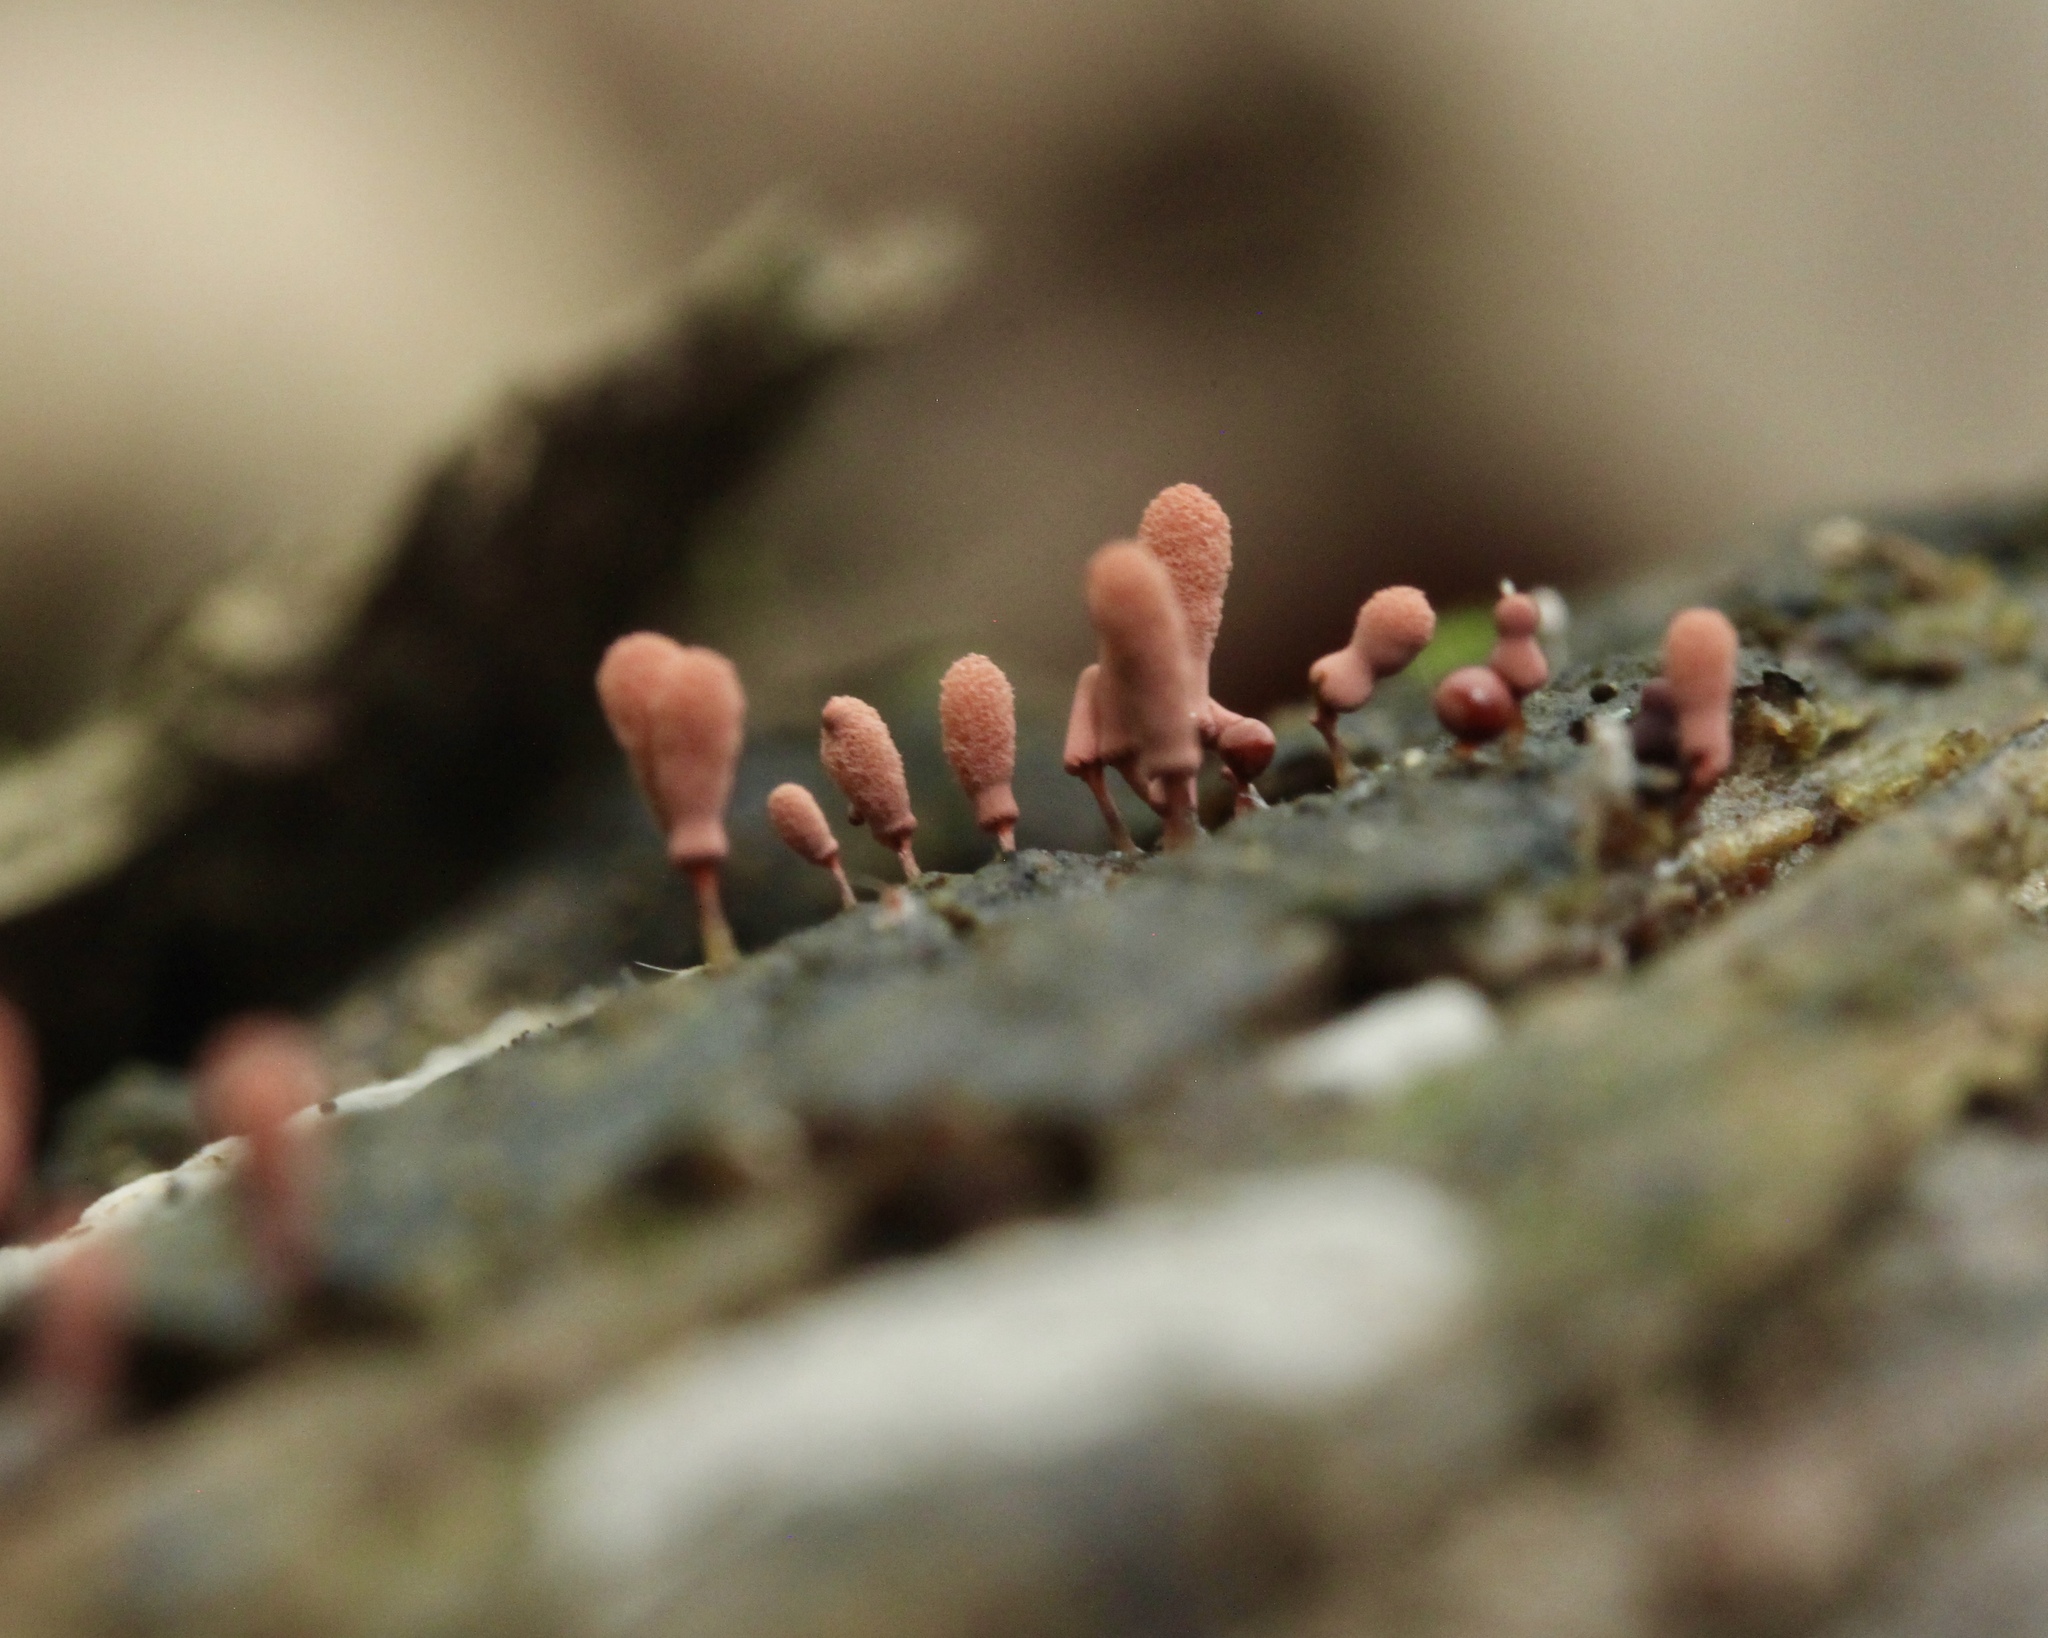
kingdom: Protozoa
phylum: Mycetozoa
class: Myxomycetes
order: Trichiales
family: Arcyriaceae
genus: Arcyria
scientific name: Arcyria denudata
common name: Carnival candy slime mold
